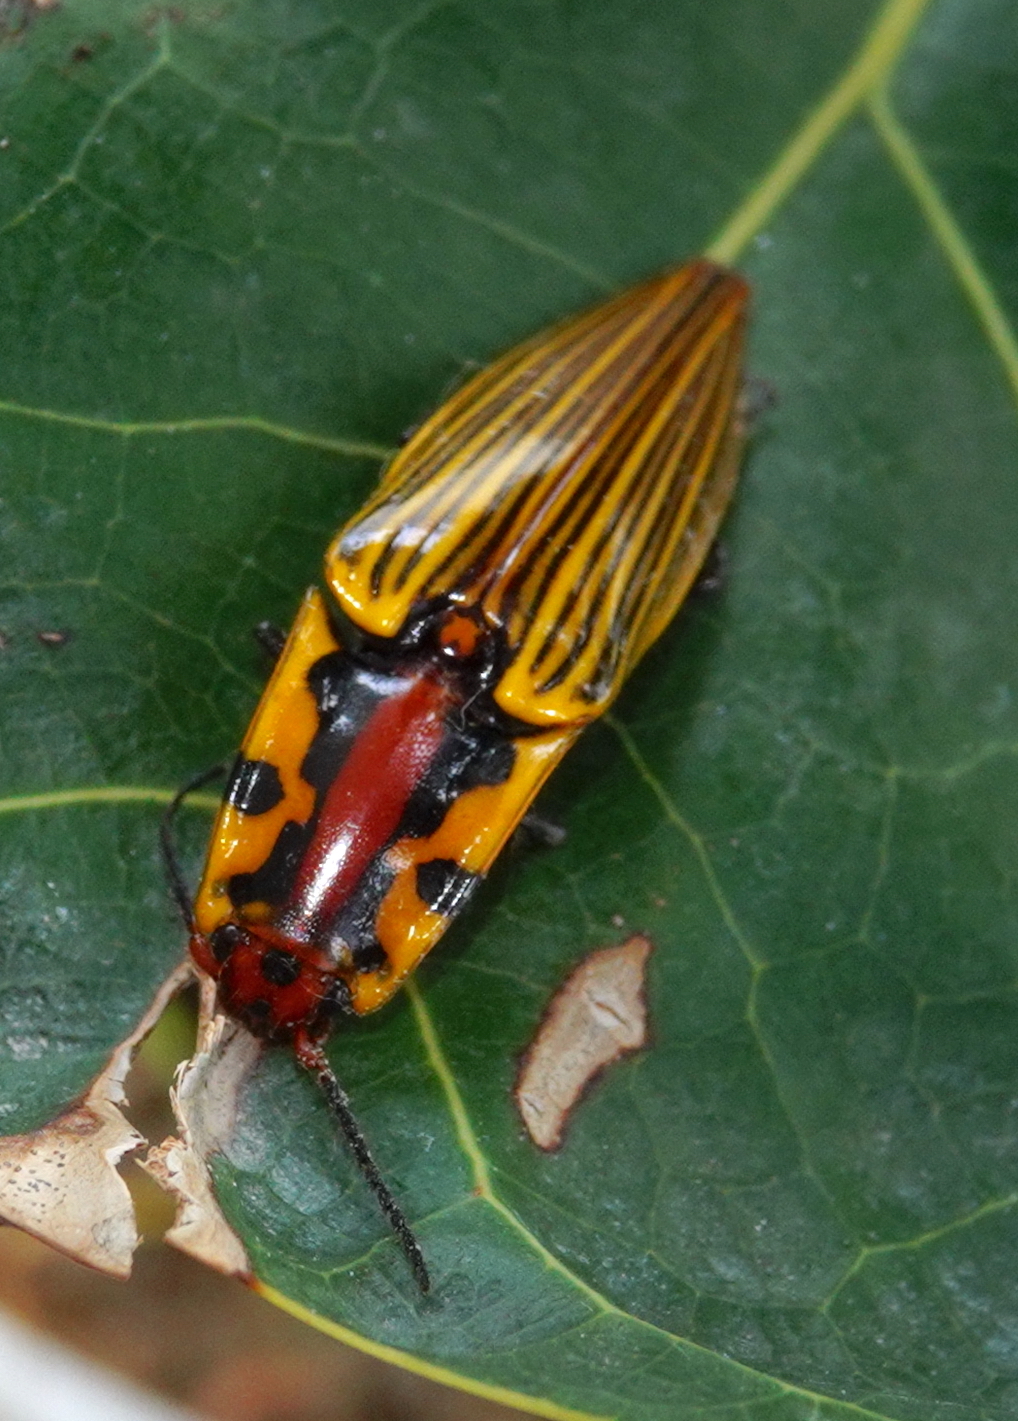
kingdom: Animalia
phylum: Arthropoda
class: Insecta
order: Coleoptera
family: Elateridae
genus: Semiotus
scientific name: Semiotus
